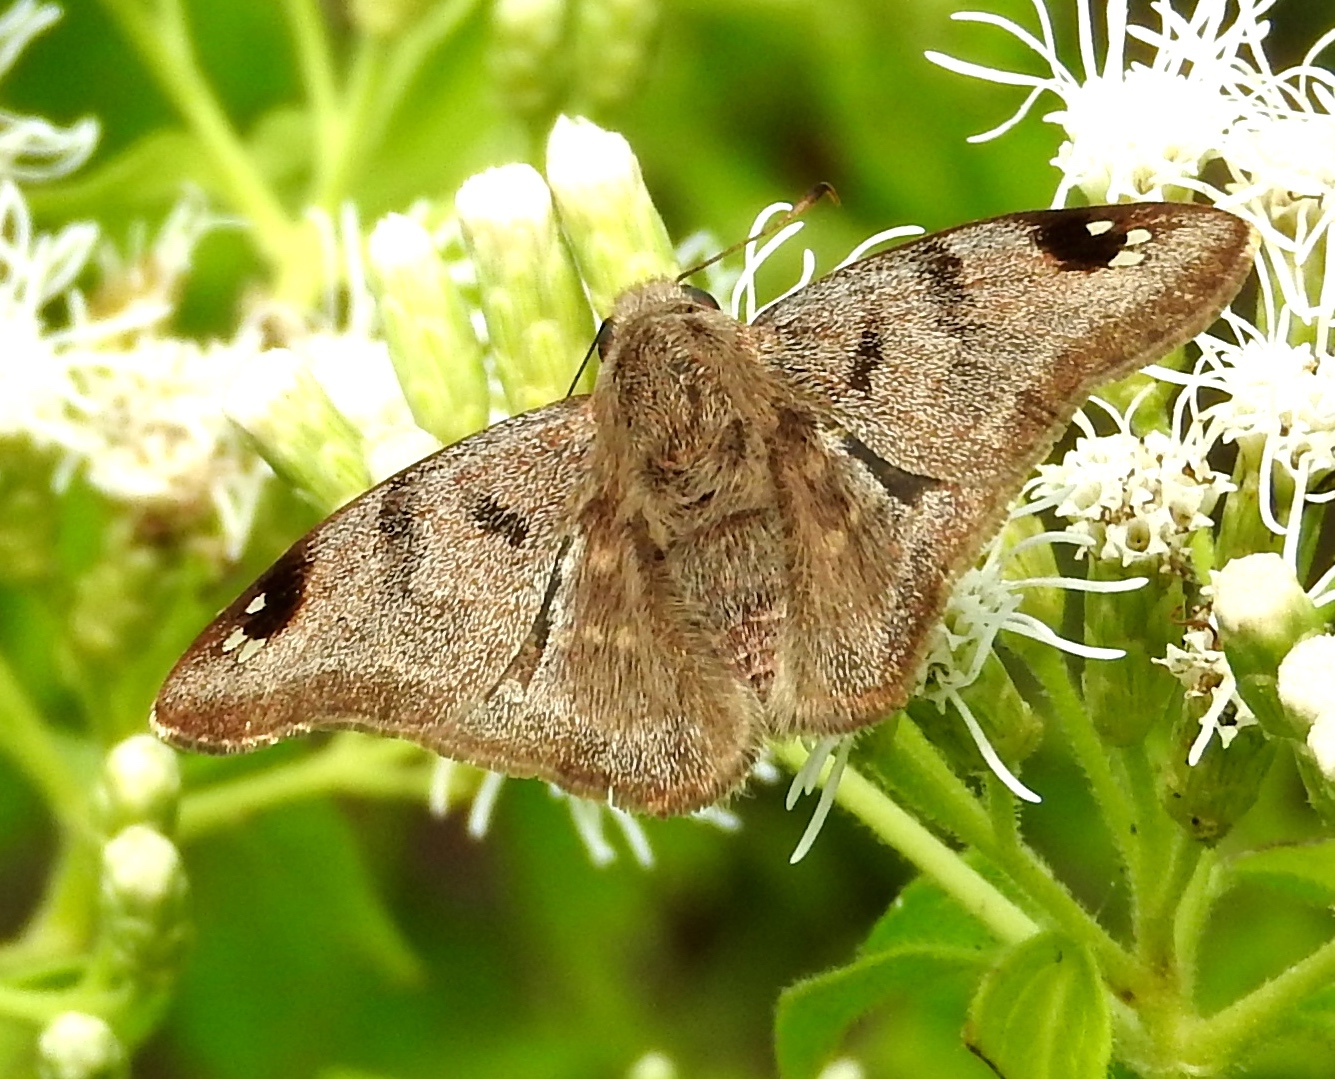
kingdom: Animalia
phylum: Arthropoda
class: Insecta
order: Lepidoptera
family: Hesperiidae
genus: Arteurotia
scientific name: Arteurotia tractipennis
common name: Starred skipper
